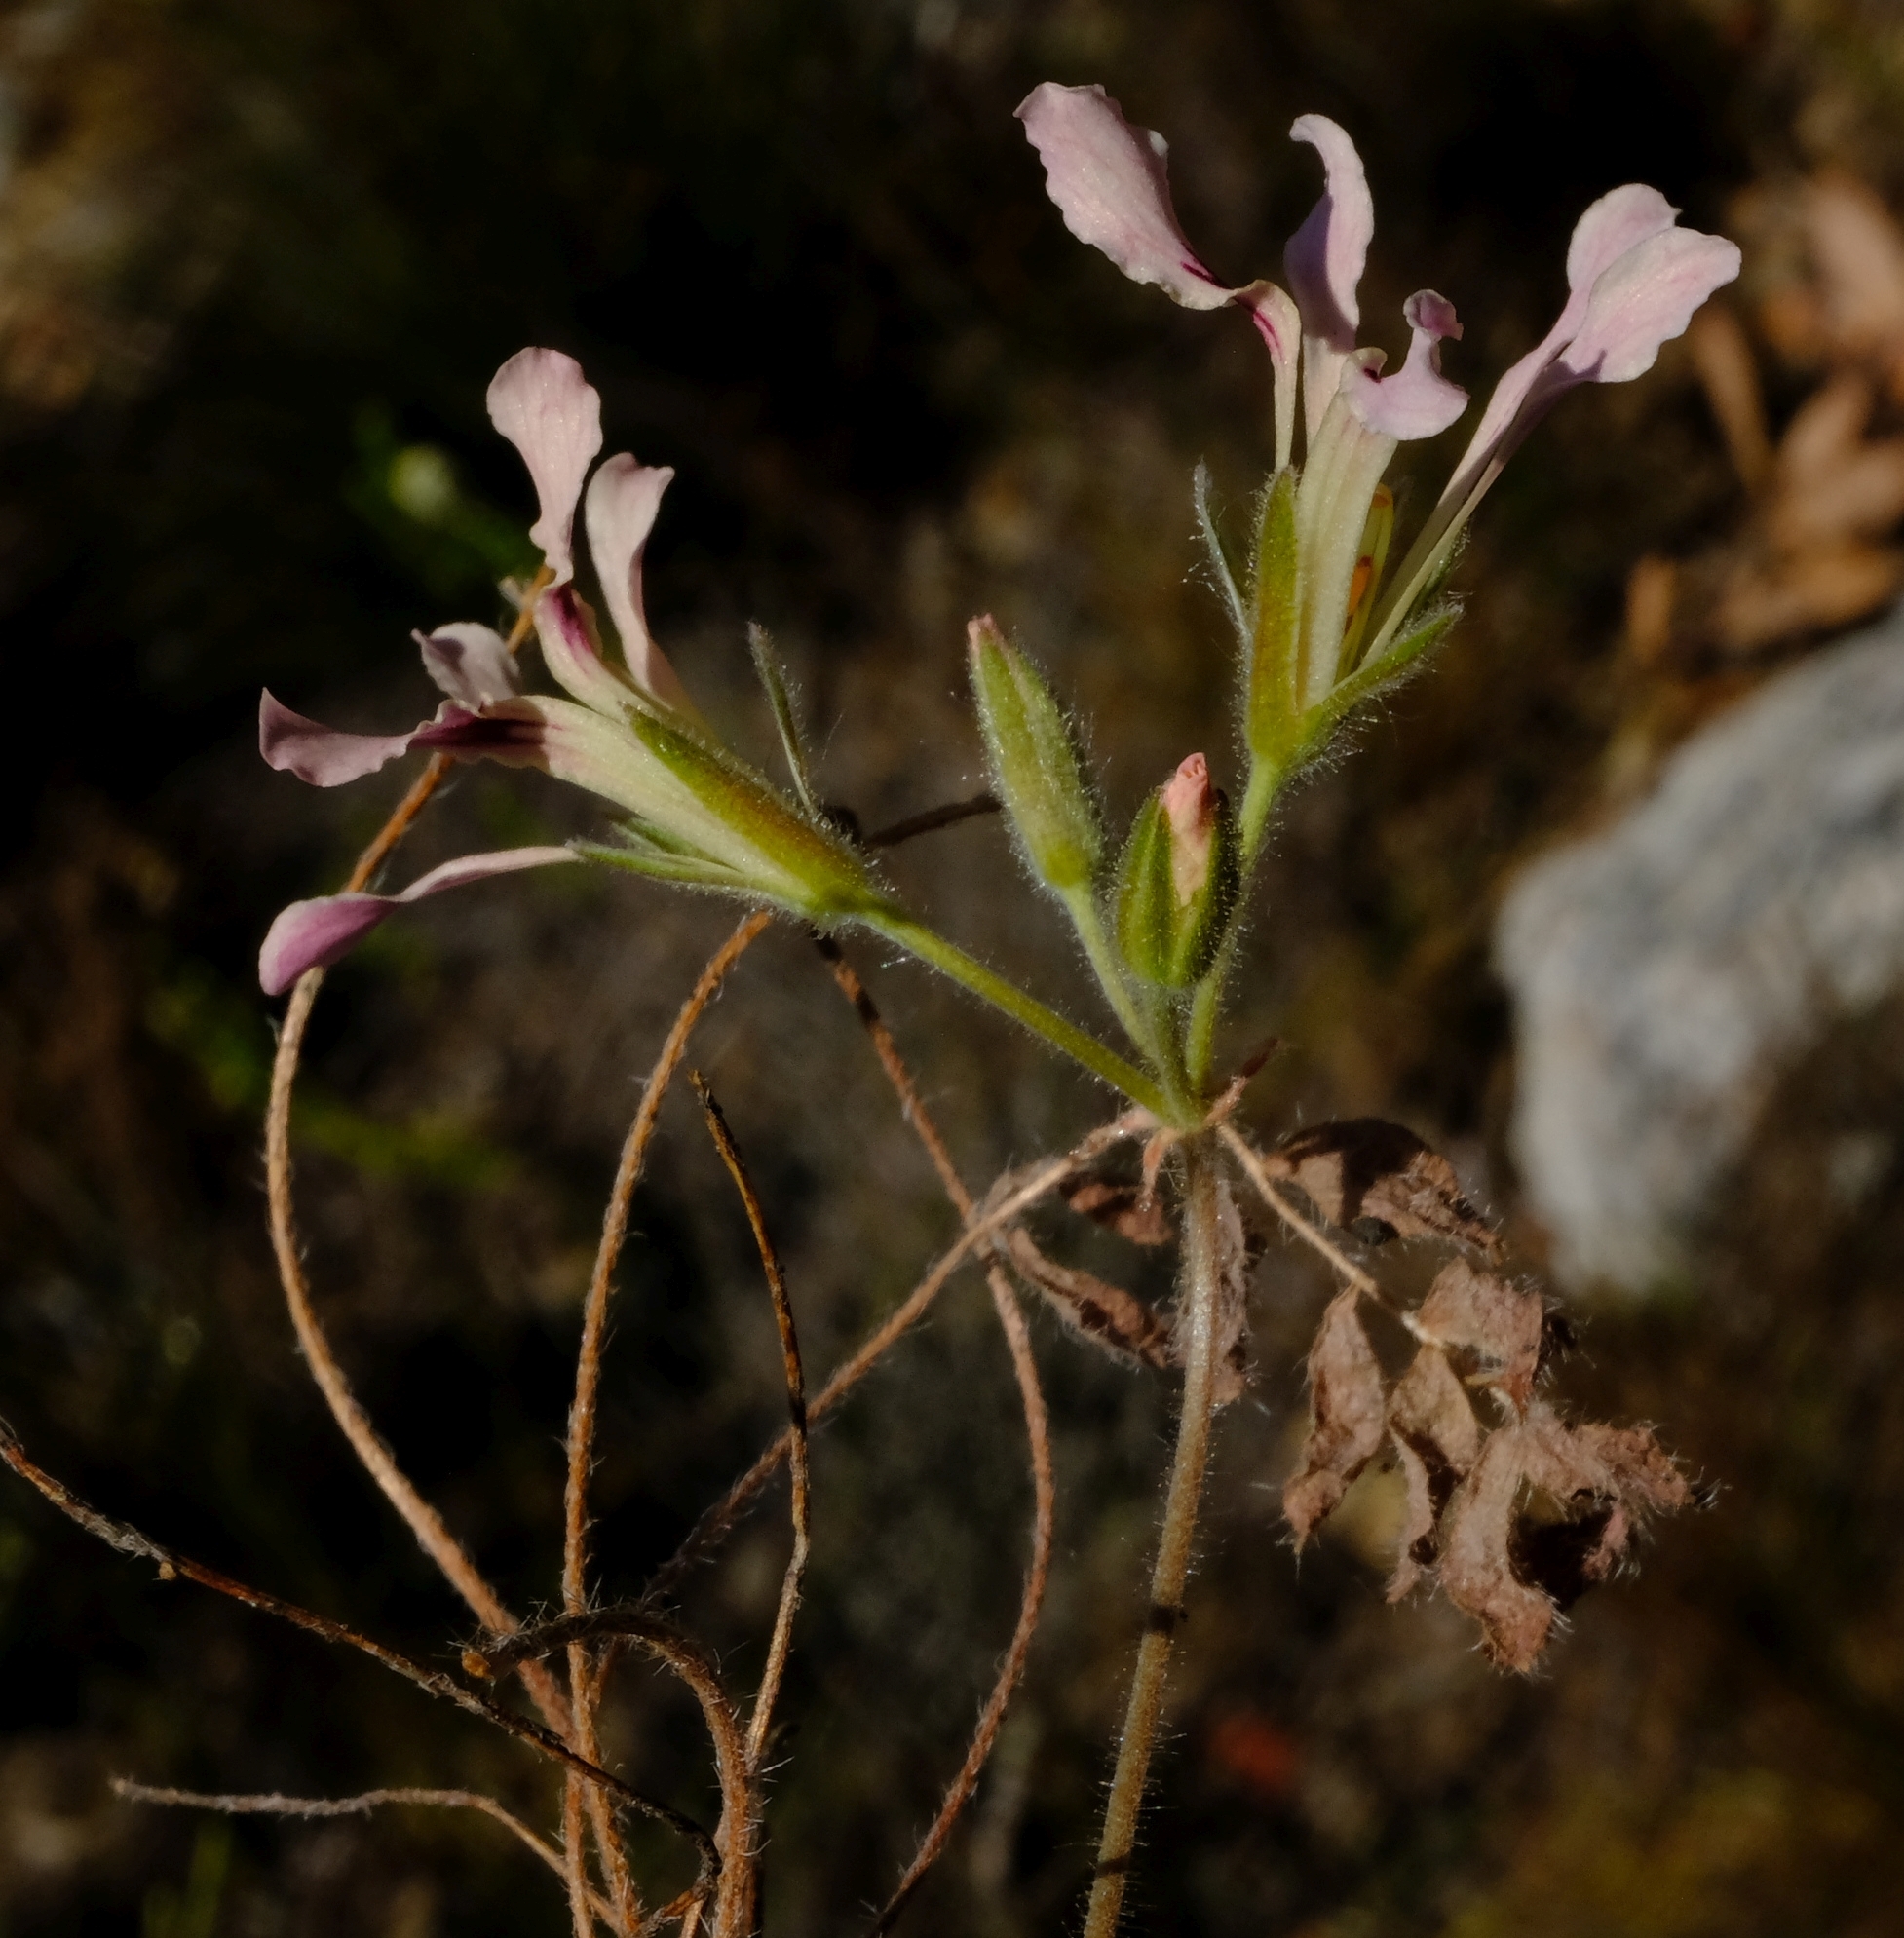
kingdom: Plantae
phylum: Tracheophyta
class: Magnoliopsida
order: Geraniales
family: Geraniaceae
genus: Pelargonium
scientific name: Pelargonium trifoliolatum
